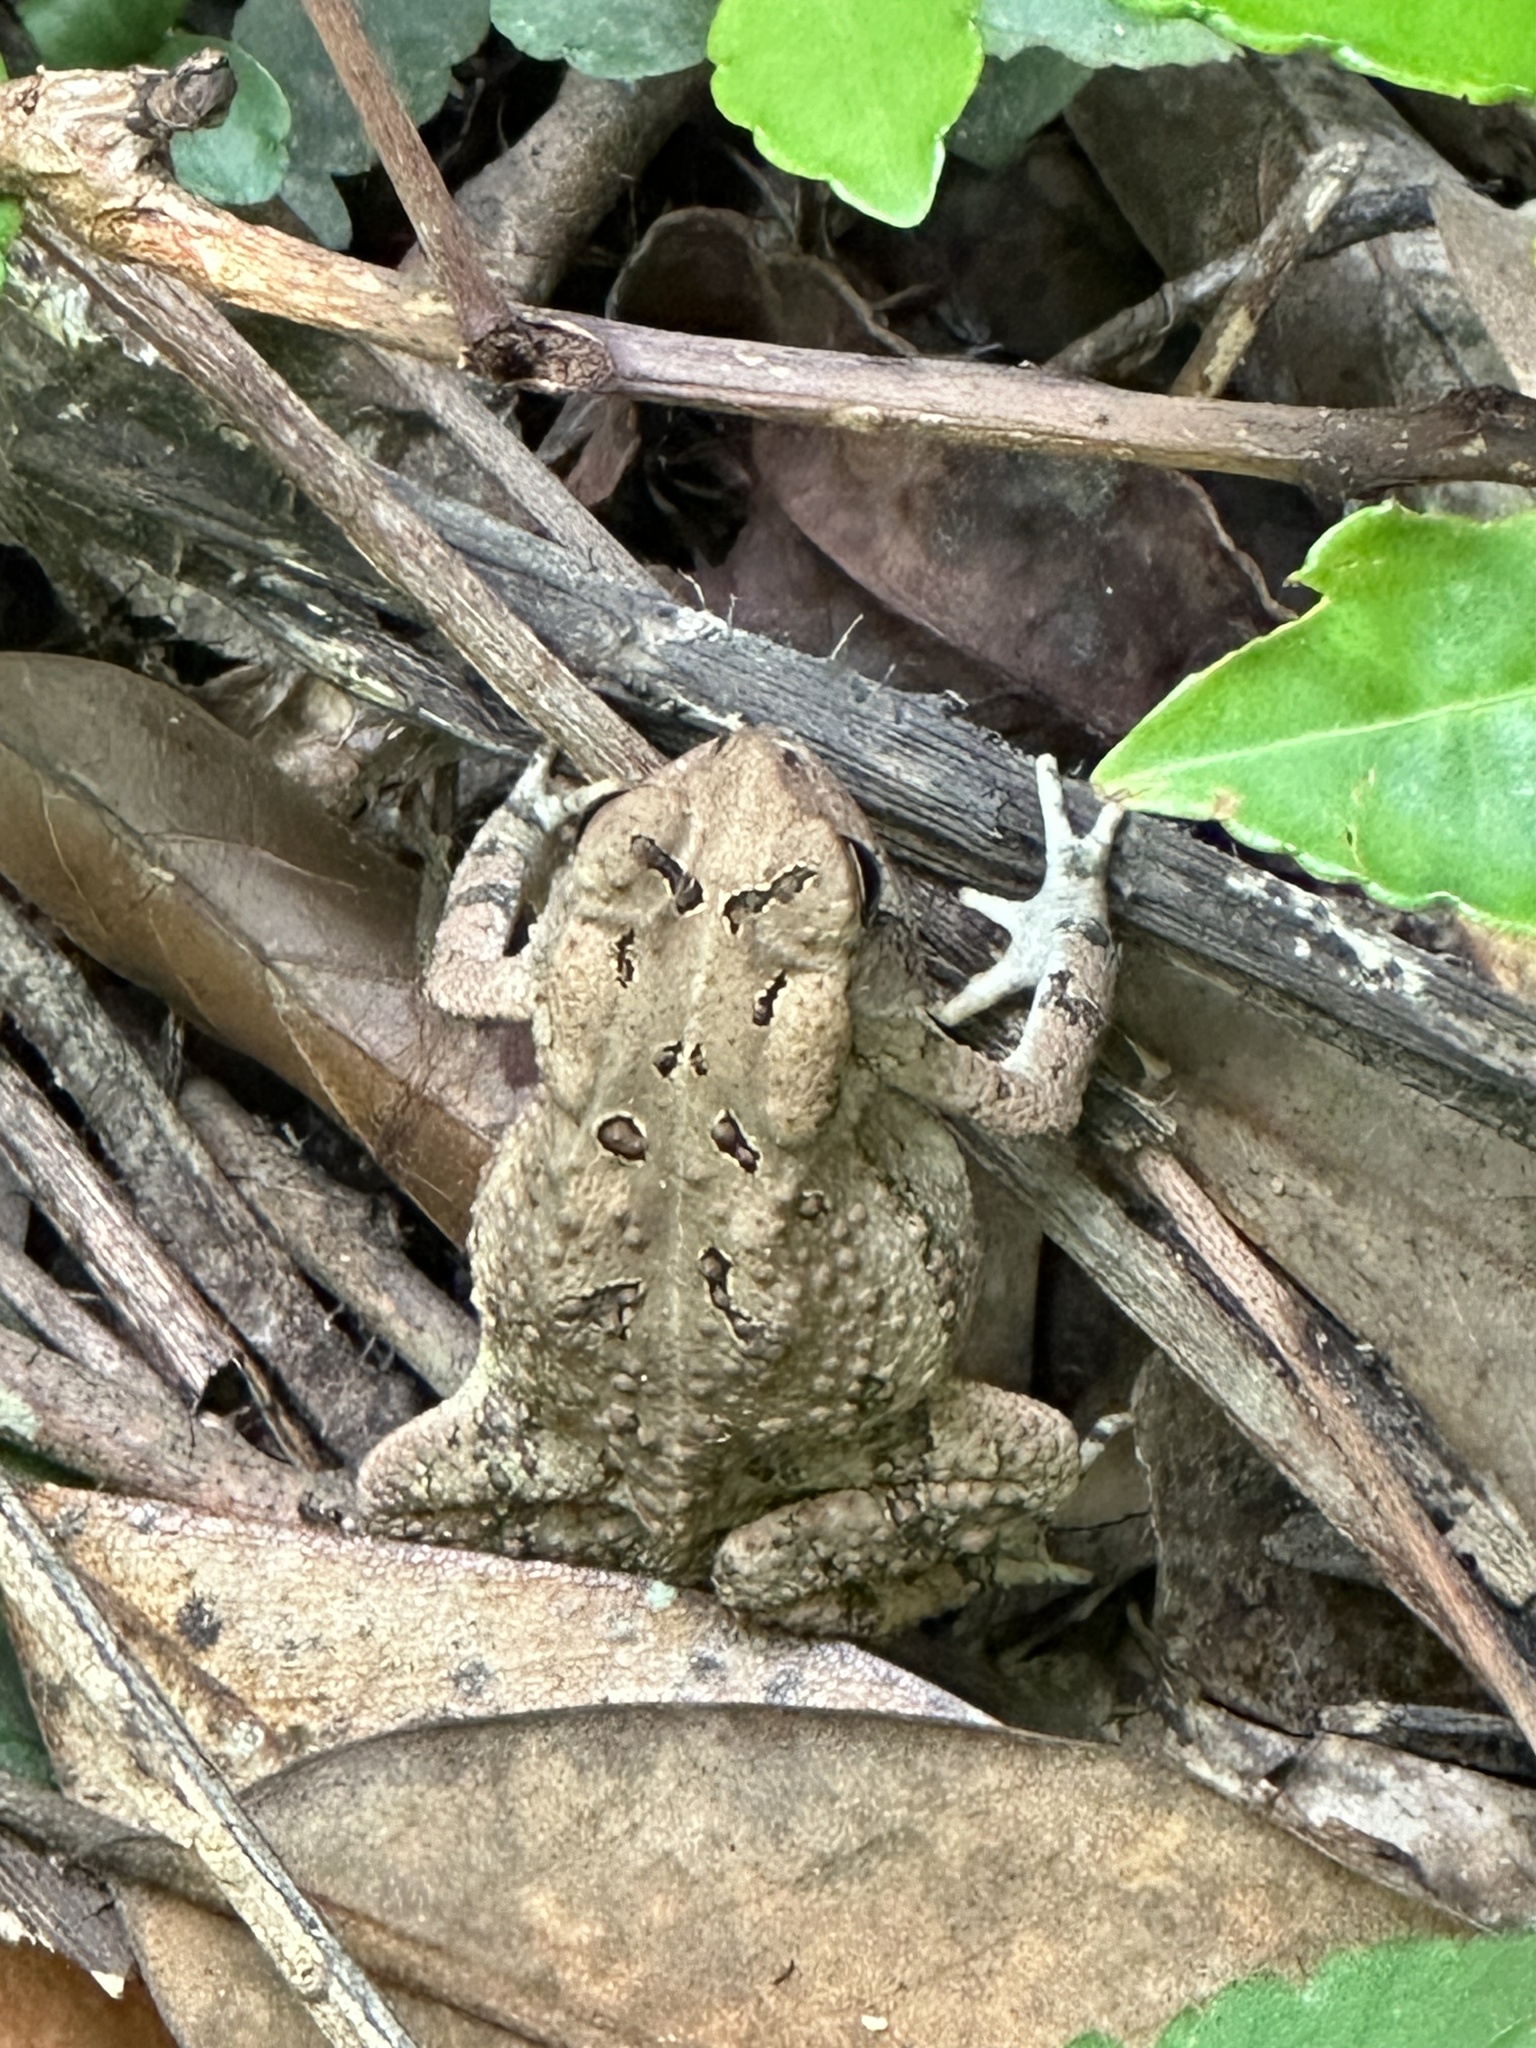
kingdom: Animalia
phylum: Chordata
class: Amphibia
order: Anura
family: Bufonidae
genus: Anaxyrus
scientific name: Anaxyrus fowleri
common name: Fowler's toad
